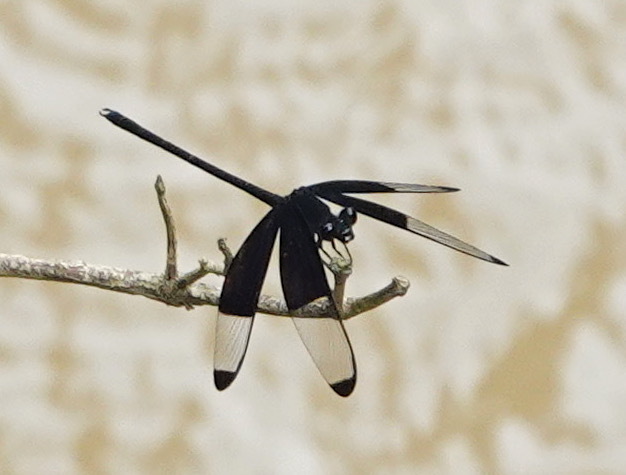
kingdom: Animalia
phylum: Arthropoda
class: Insecta
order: Odonata
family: Euphaeidae
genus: Dysphaea
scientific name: Dysphaea dimidiata
